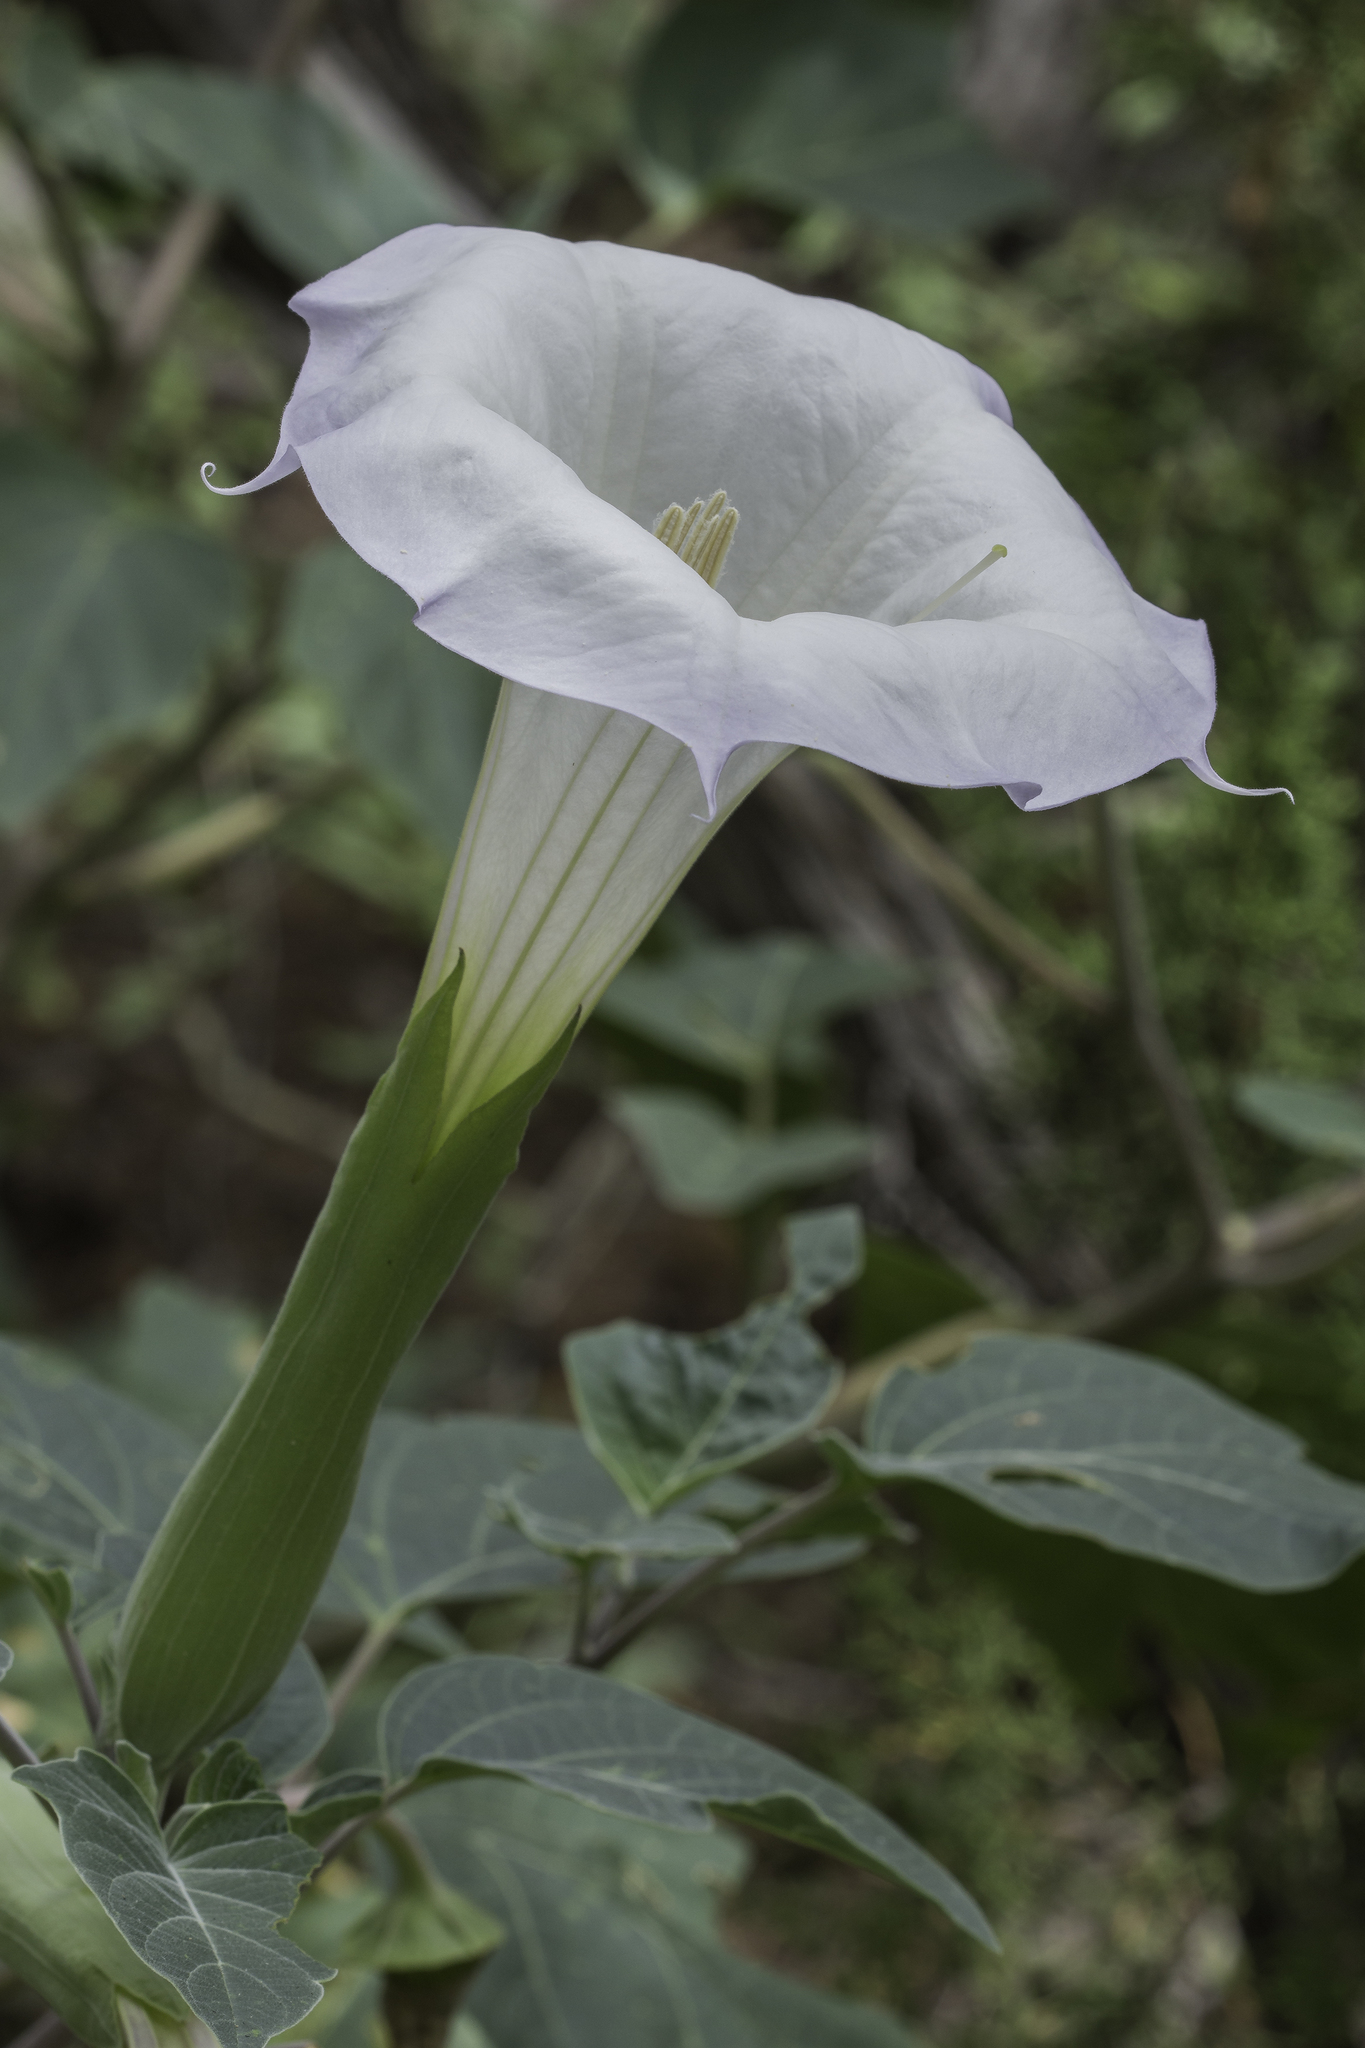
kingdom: Plantae
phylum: Tracheophyta
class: Magnoliopsida
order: Solanales
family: Solanaceae
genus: Datura
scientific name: Datura wrightii
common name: Sacred thorn-apple
